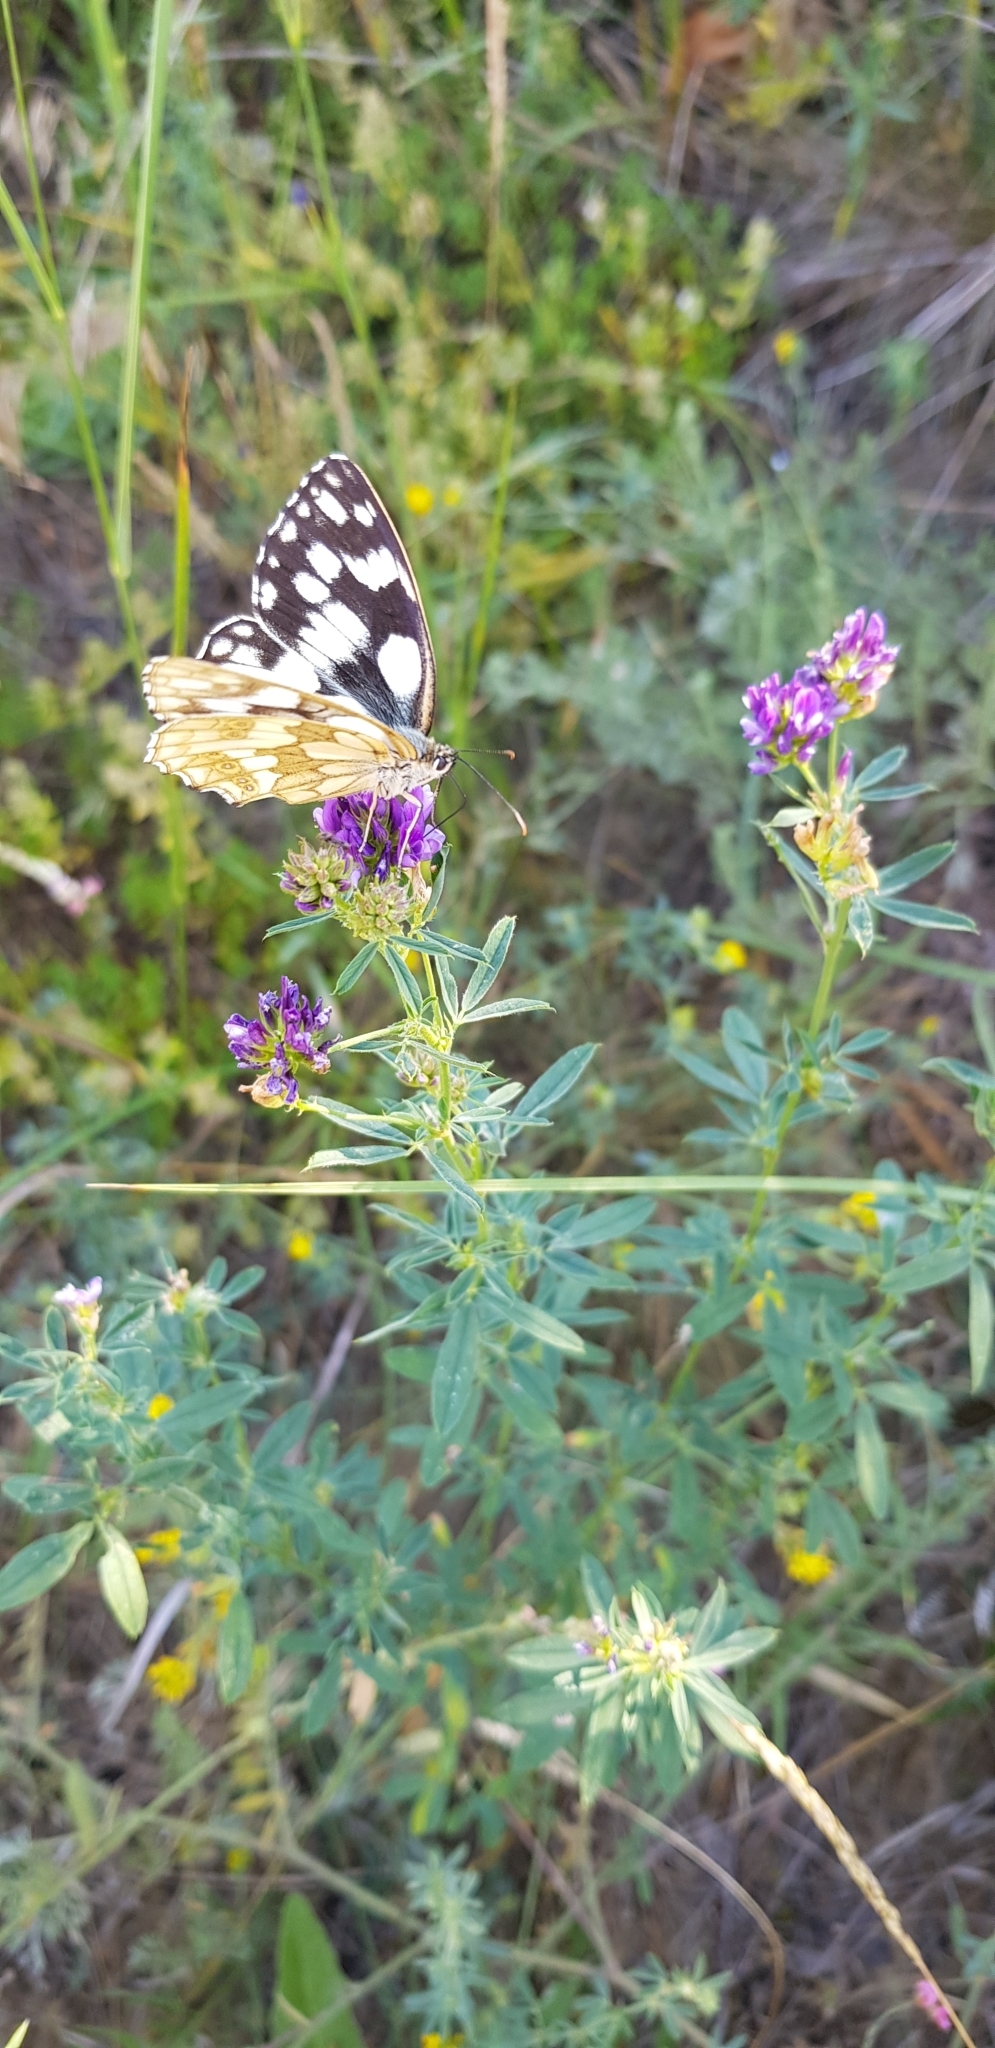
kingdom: Animalia
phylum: Arthropoda
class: Insecta
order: Lepidoptera
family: Nymphalidae
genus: Melanargia
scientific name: Melanargia galathea
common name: Marbled white
